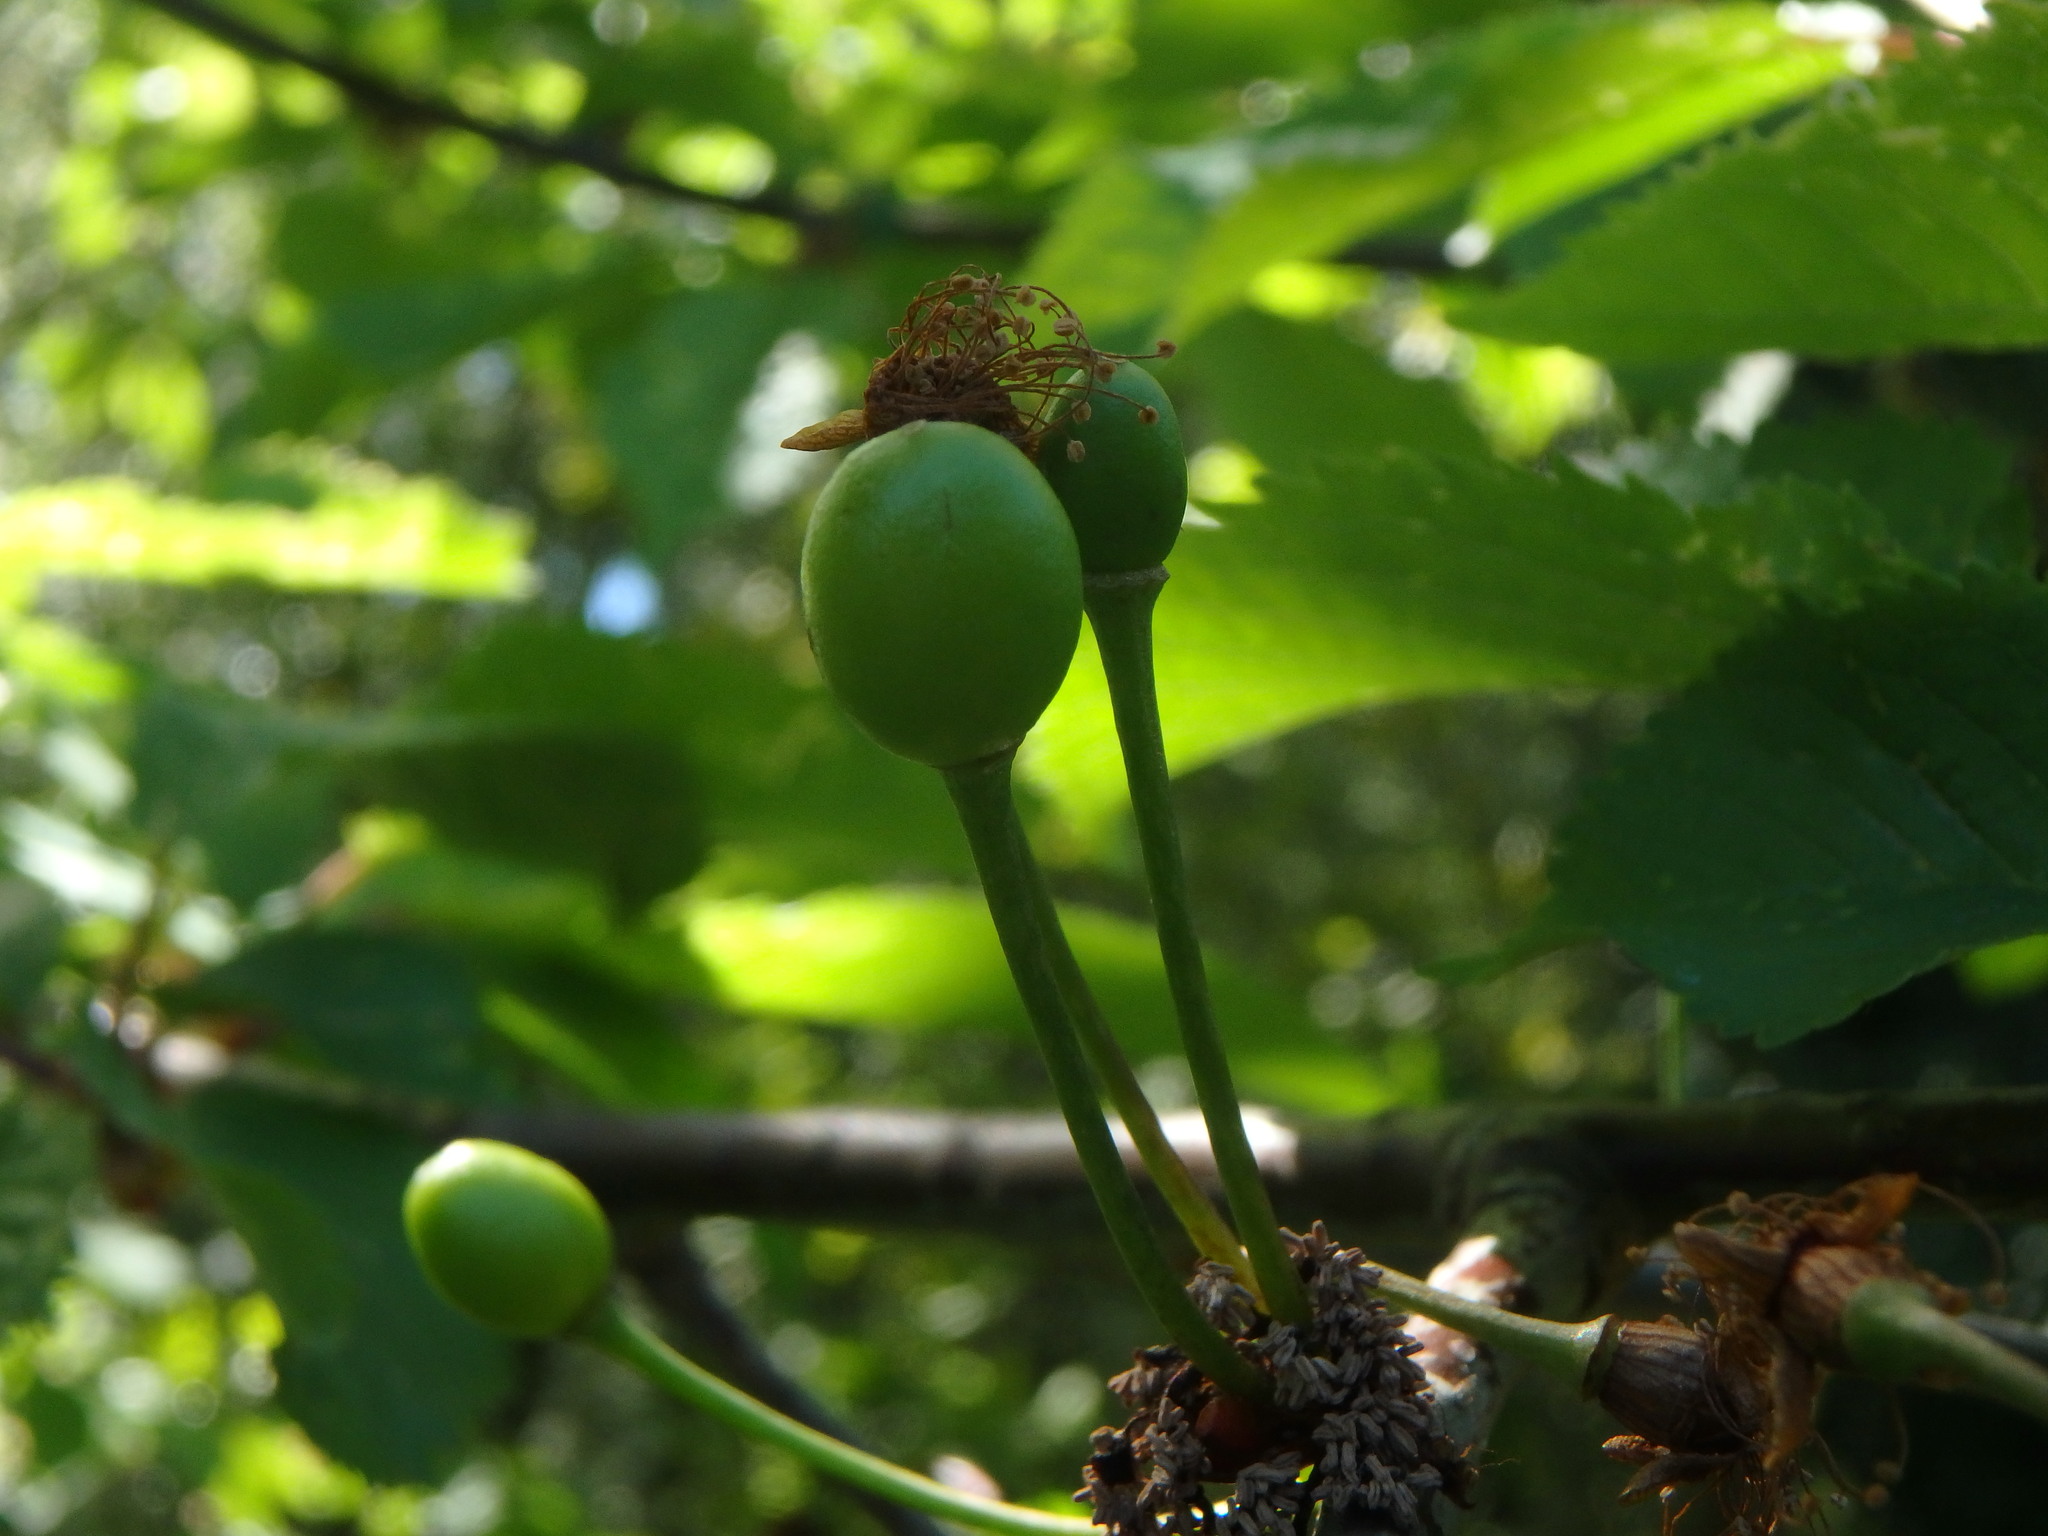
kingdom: Plantae
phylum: Tracheophyta
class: Magnoliopsida
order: Rosales
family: Rosaceae
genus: Prunus
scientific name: Prunus avium
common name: Sweet cherry
